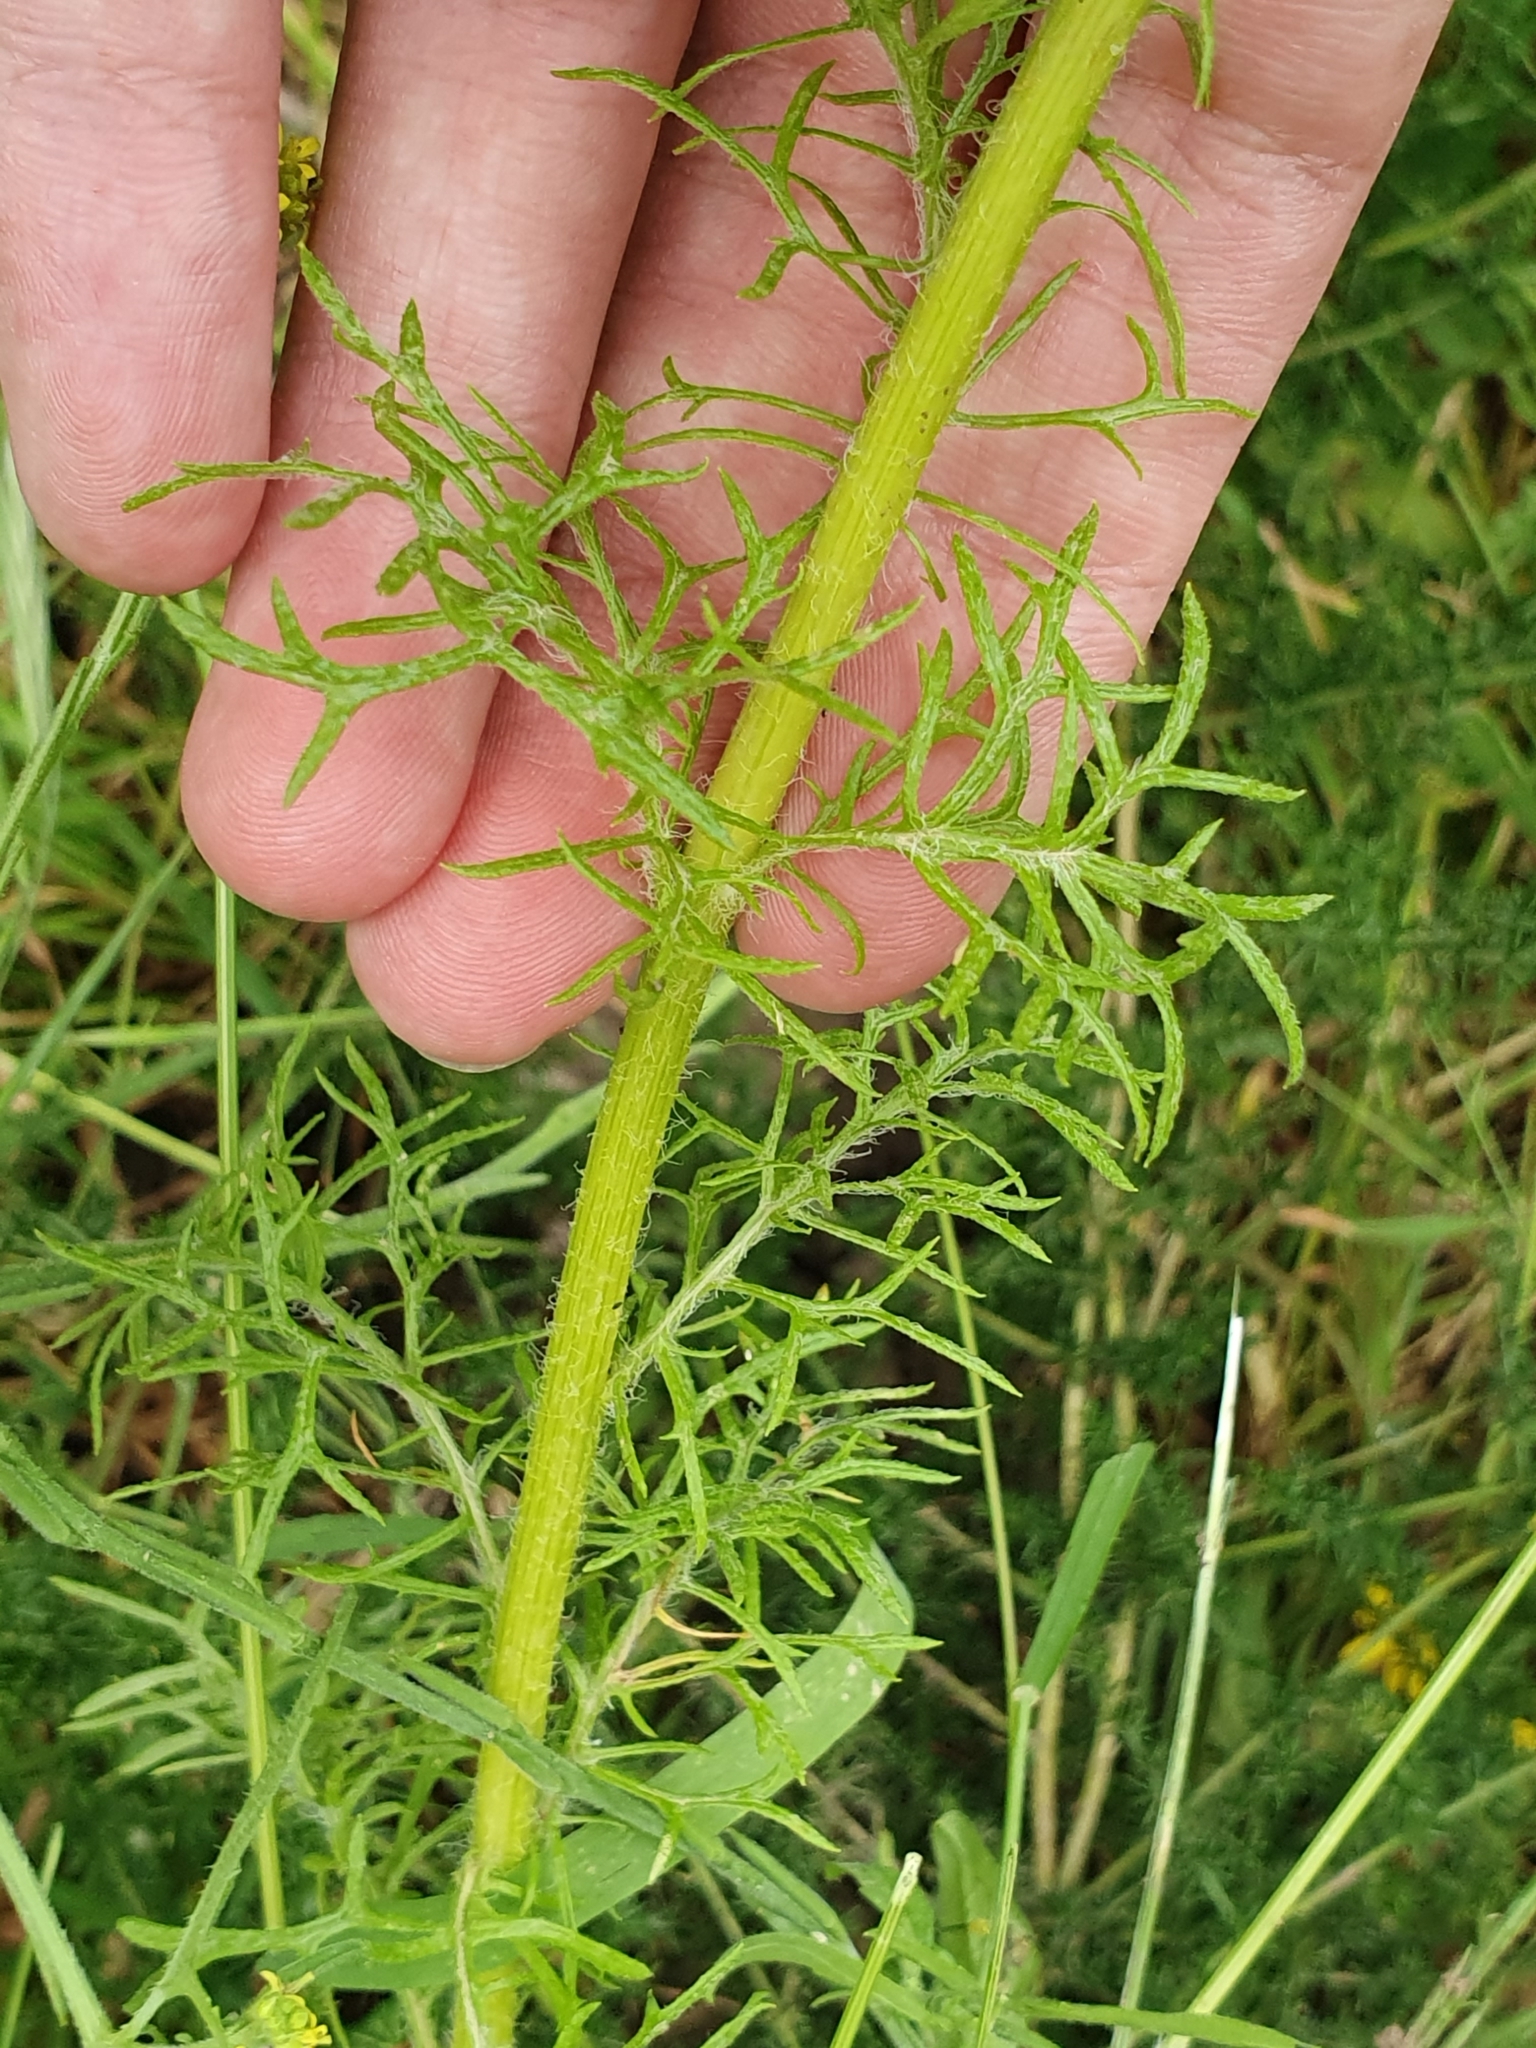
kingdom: Plantae
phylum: Tracheophyta
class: Magnoliopsida
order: Asterales
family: Asteraceae
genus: Jacobaea
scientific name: Jacobaea delphiniifolia
